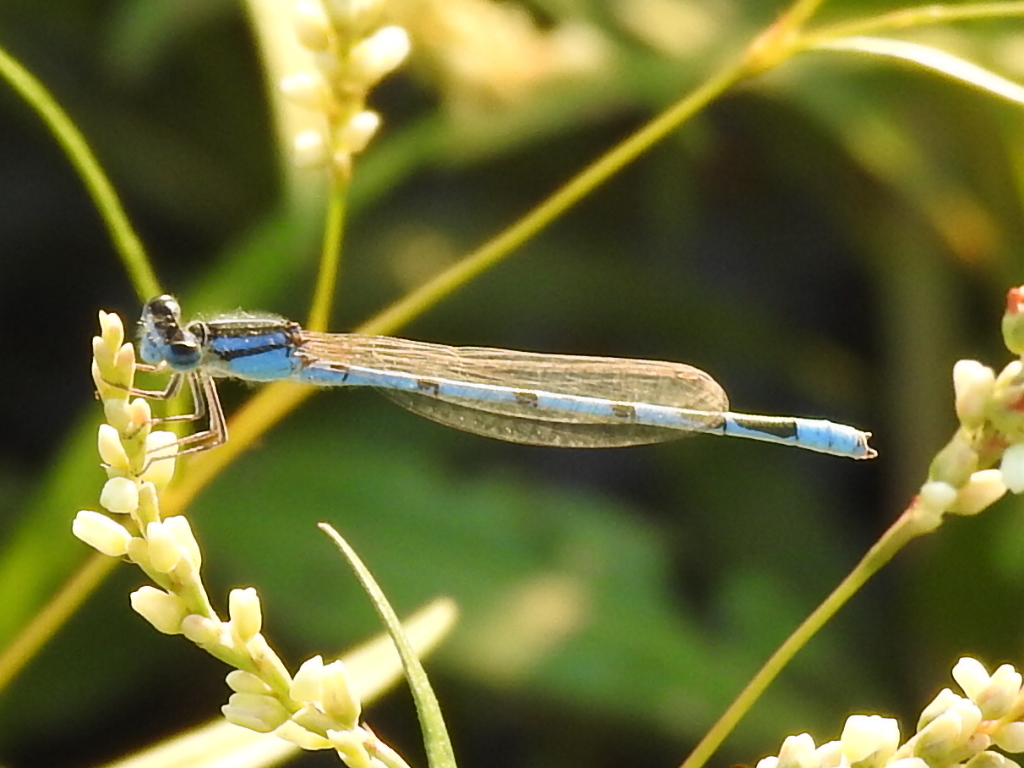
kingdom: Animalia
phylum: Arthropoda
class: Insecta
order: Odonata
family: Coenagrionidae
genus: Enallagma
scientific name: Enallagma civile
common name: Damselfly
